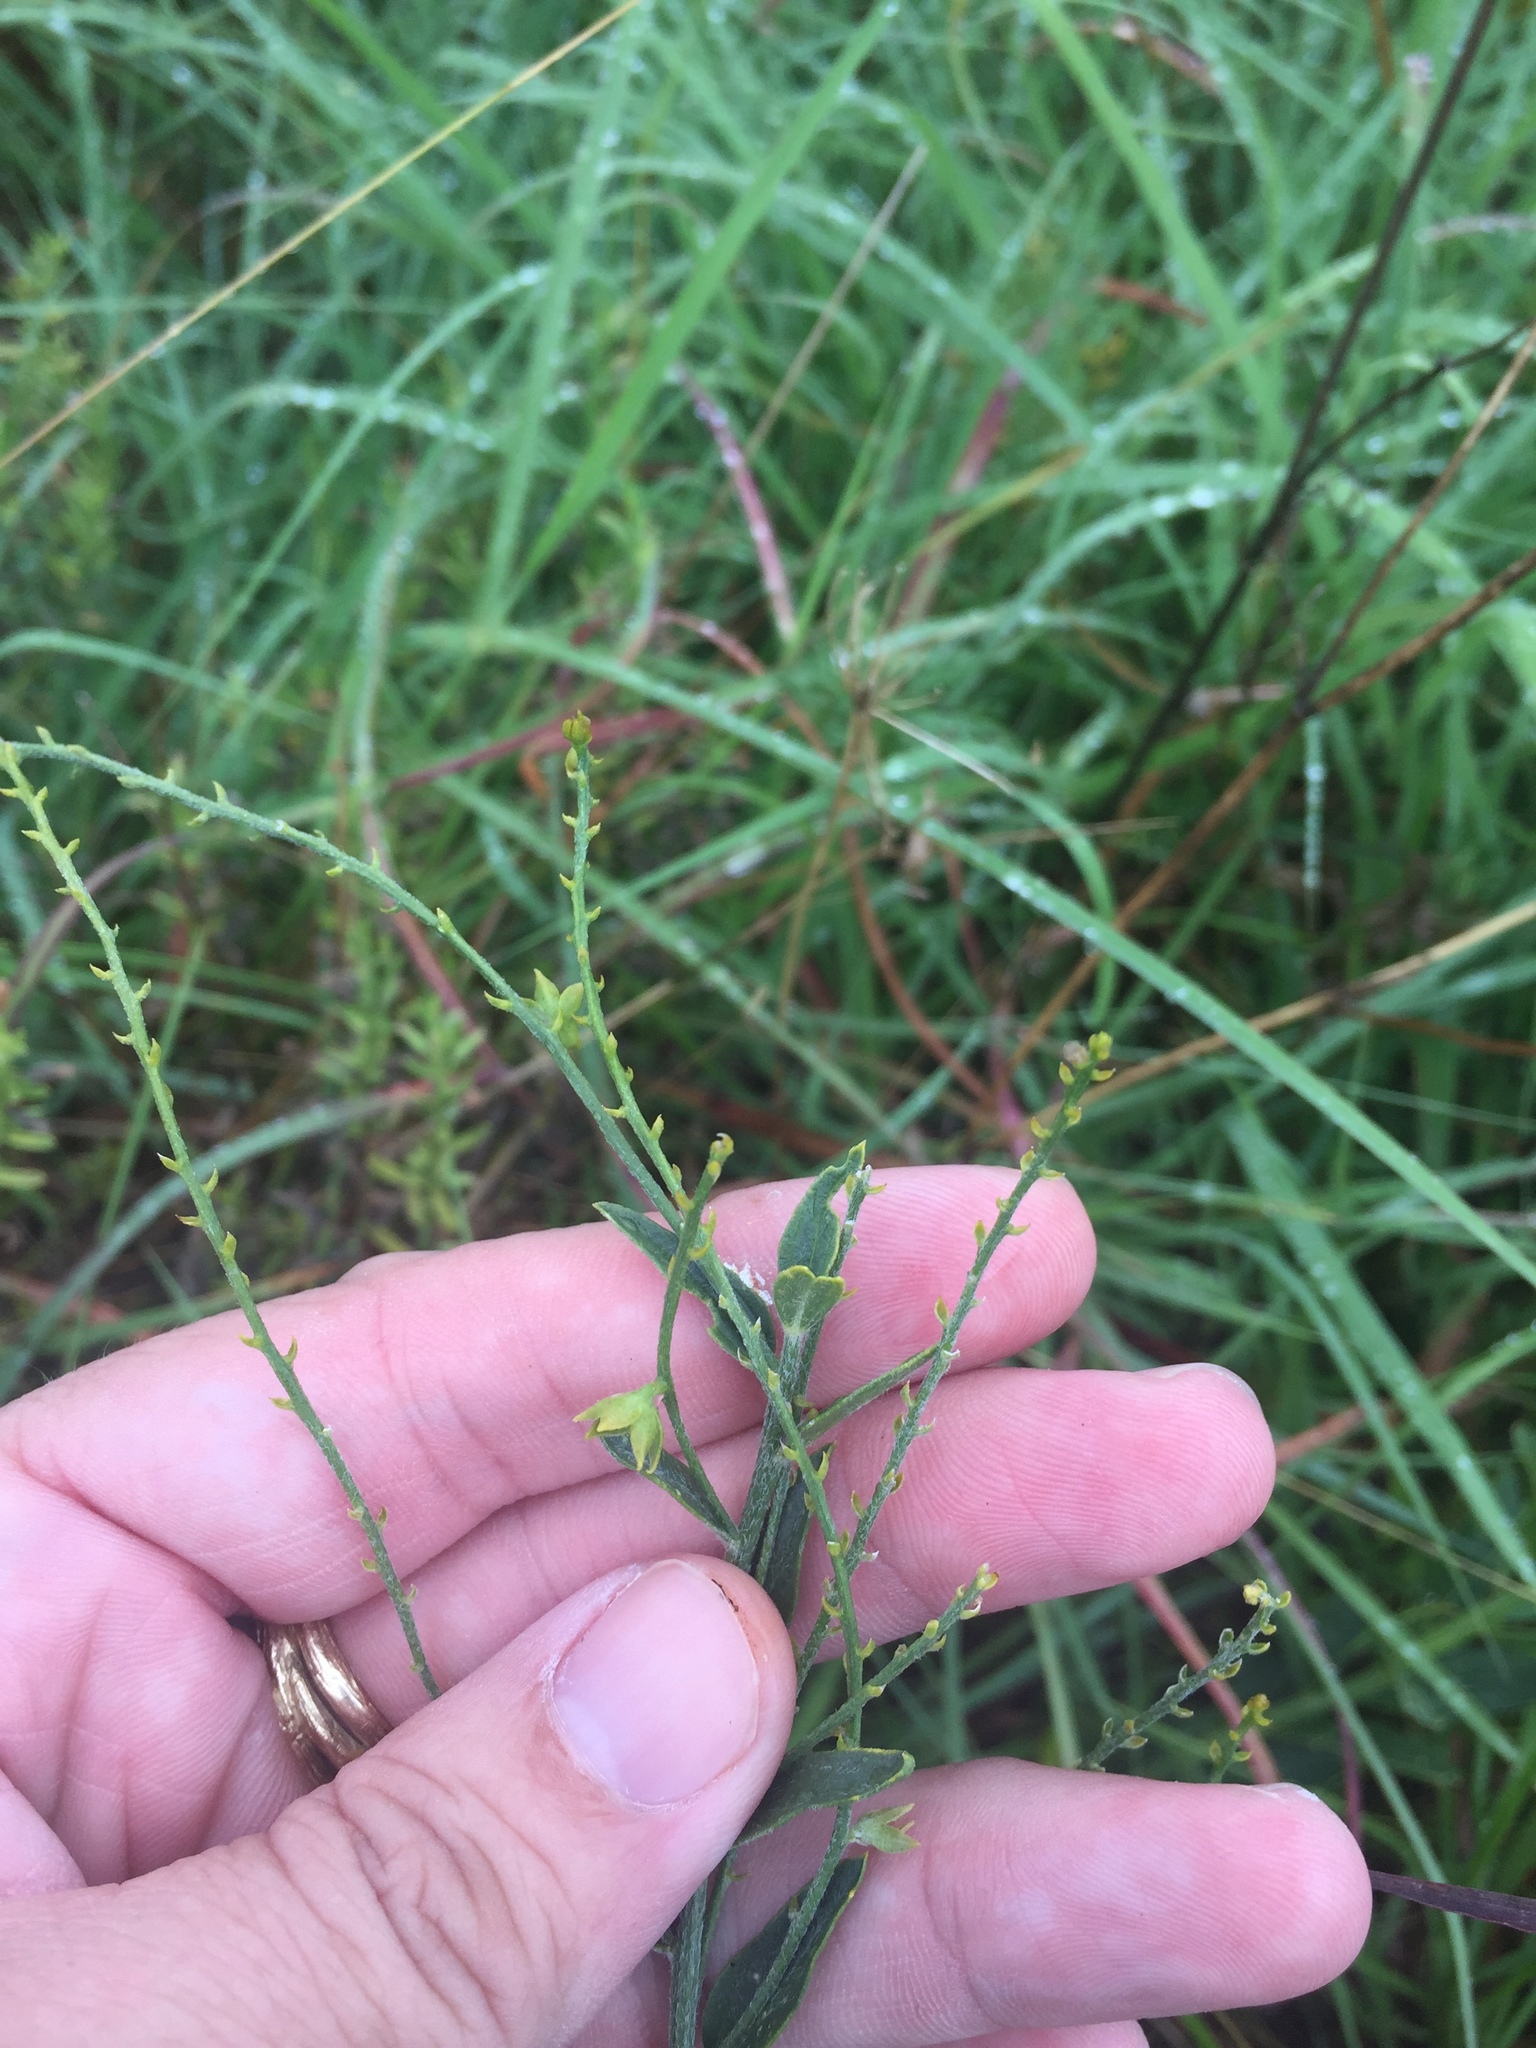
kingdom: Plantae
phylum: Tracheophyta
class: Magnoliopsida
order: Malpighiales
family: Euphorbiaceae
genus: Ditaxis
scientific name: Ditaxis mercurialina
